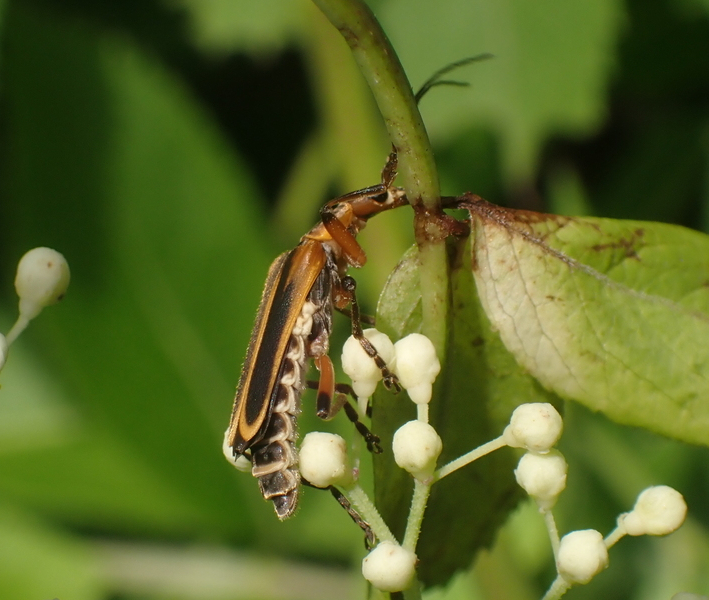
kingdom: Animalia
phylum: Arthropoda
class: Insecta
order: Coleoptera
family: Cantharidae
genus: Chauliognathus
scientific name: Chauliognathus marginatus
